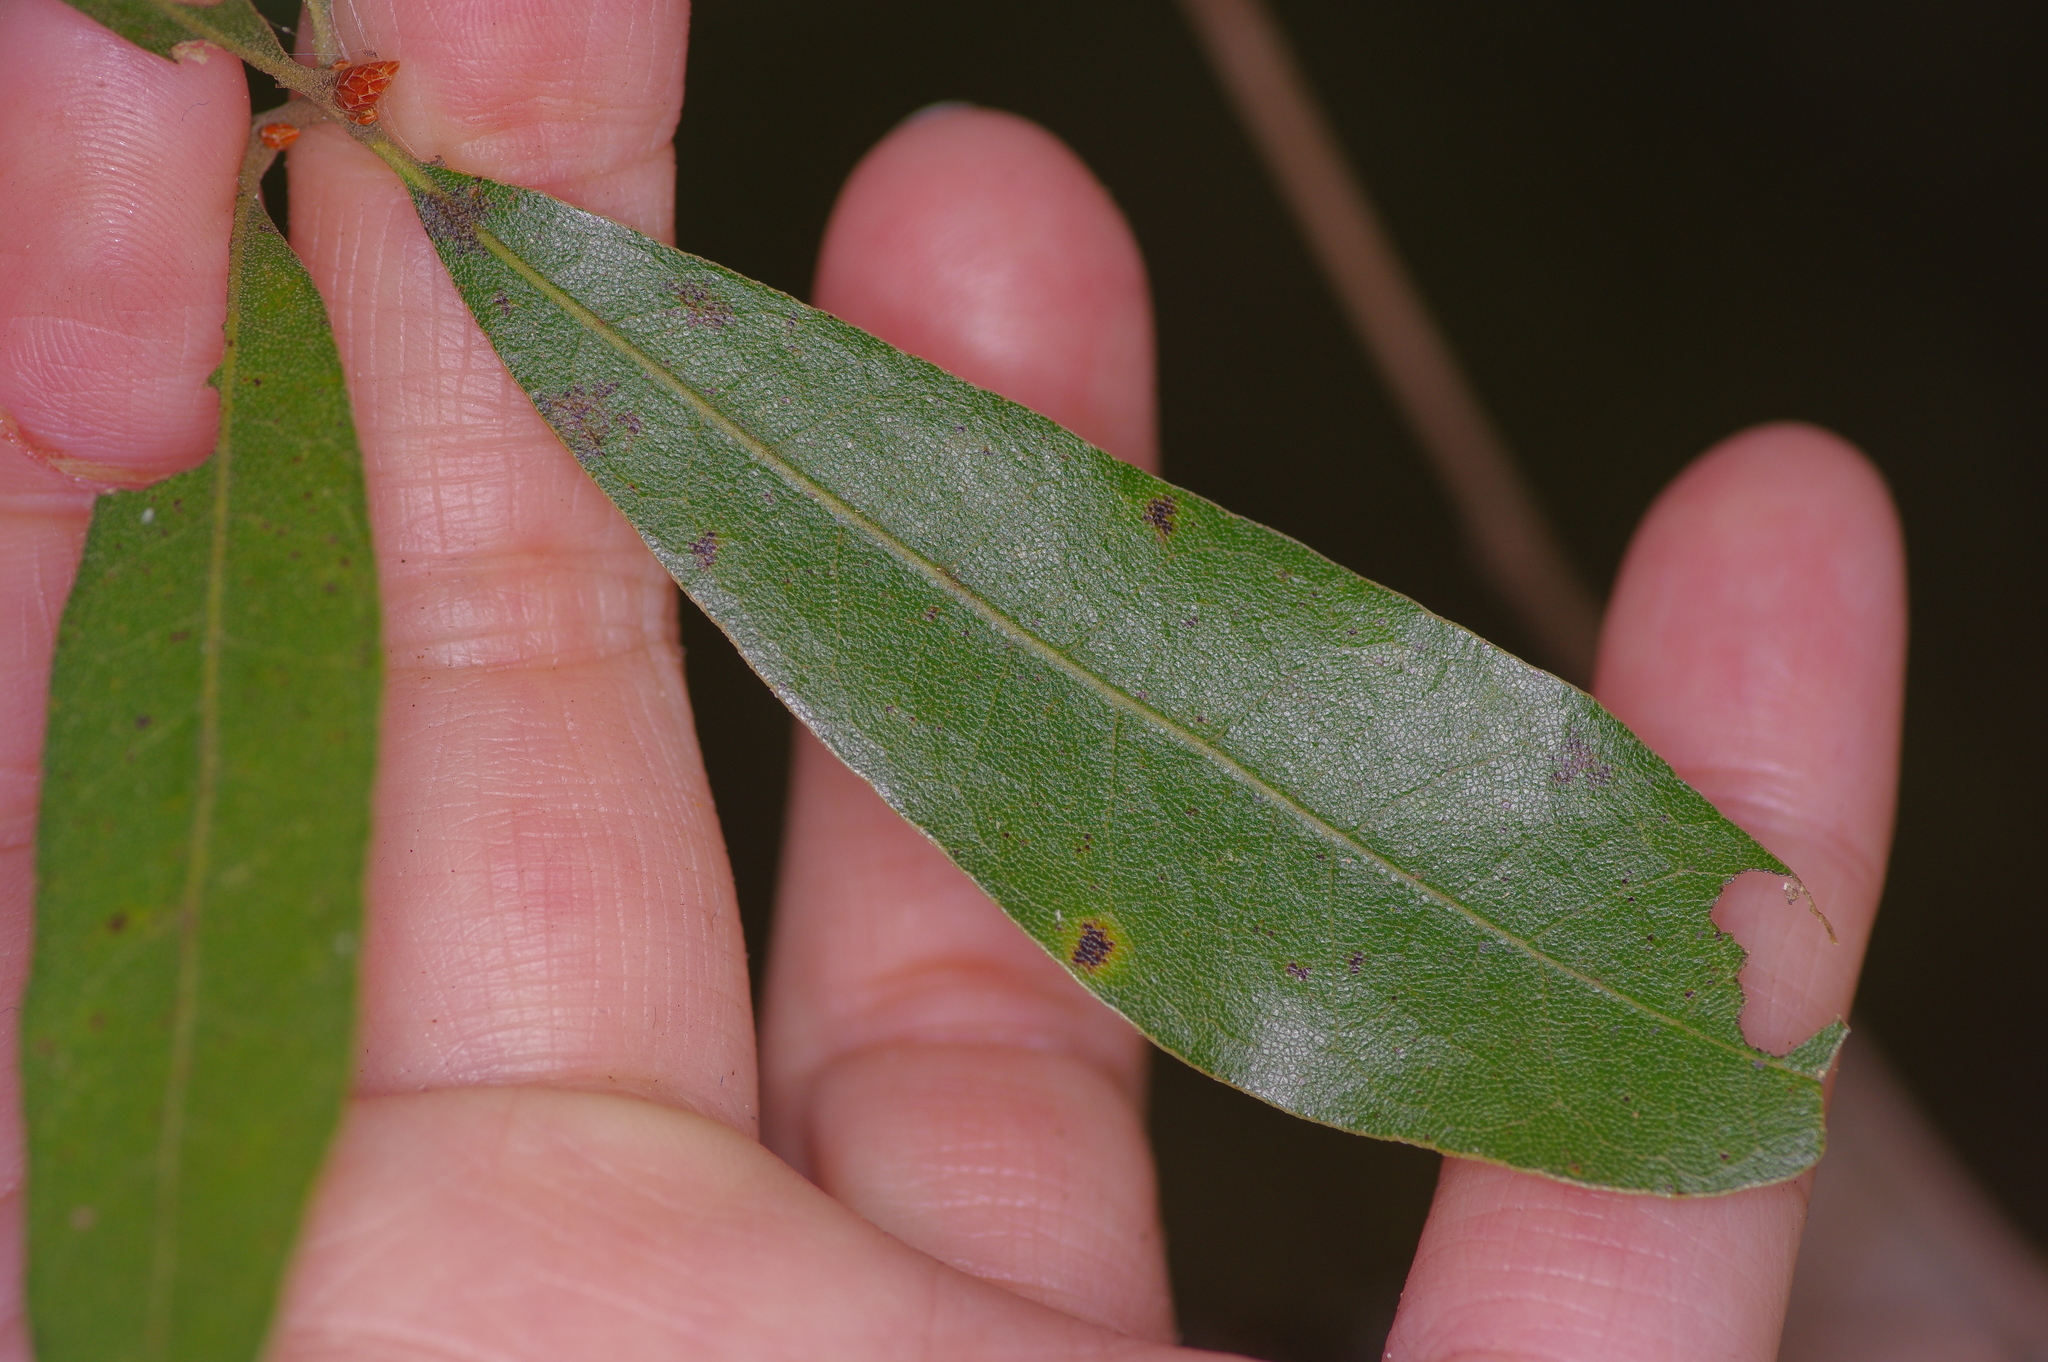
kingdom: Plantae
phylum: Tracheophyta
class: Magnoliopsida
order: Fagales
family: Fagaceae
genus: Quercus
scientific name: Quercus incana
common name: Bluejack oak
